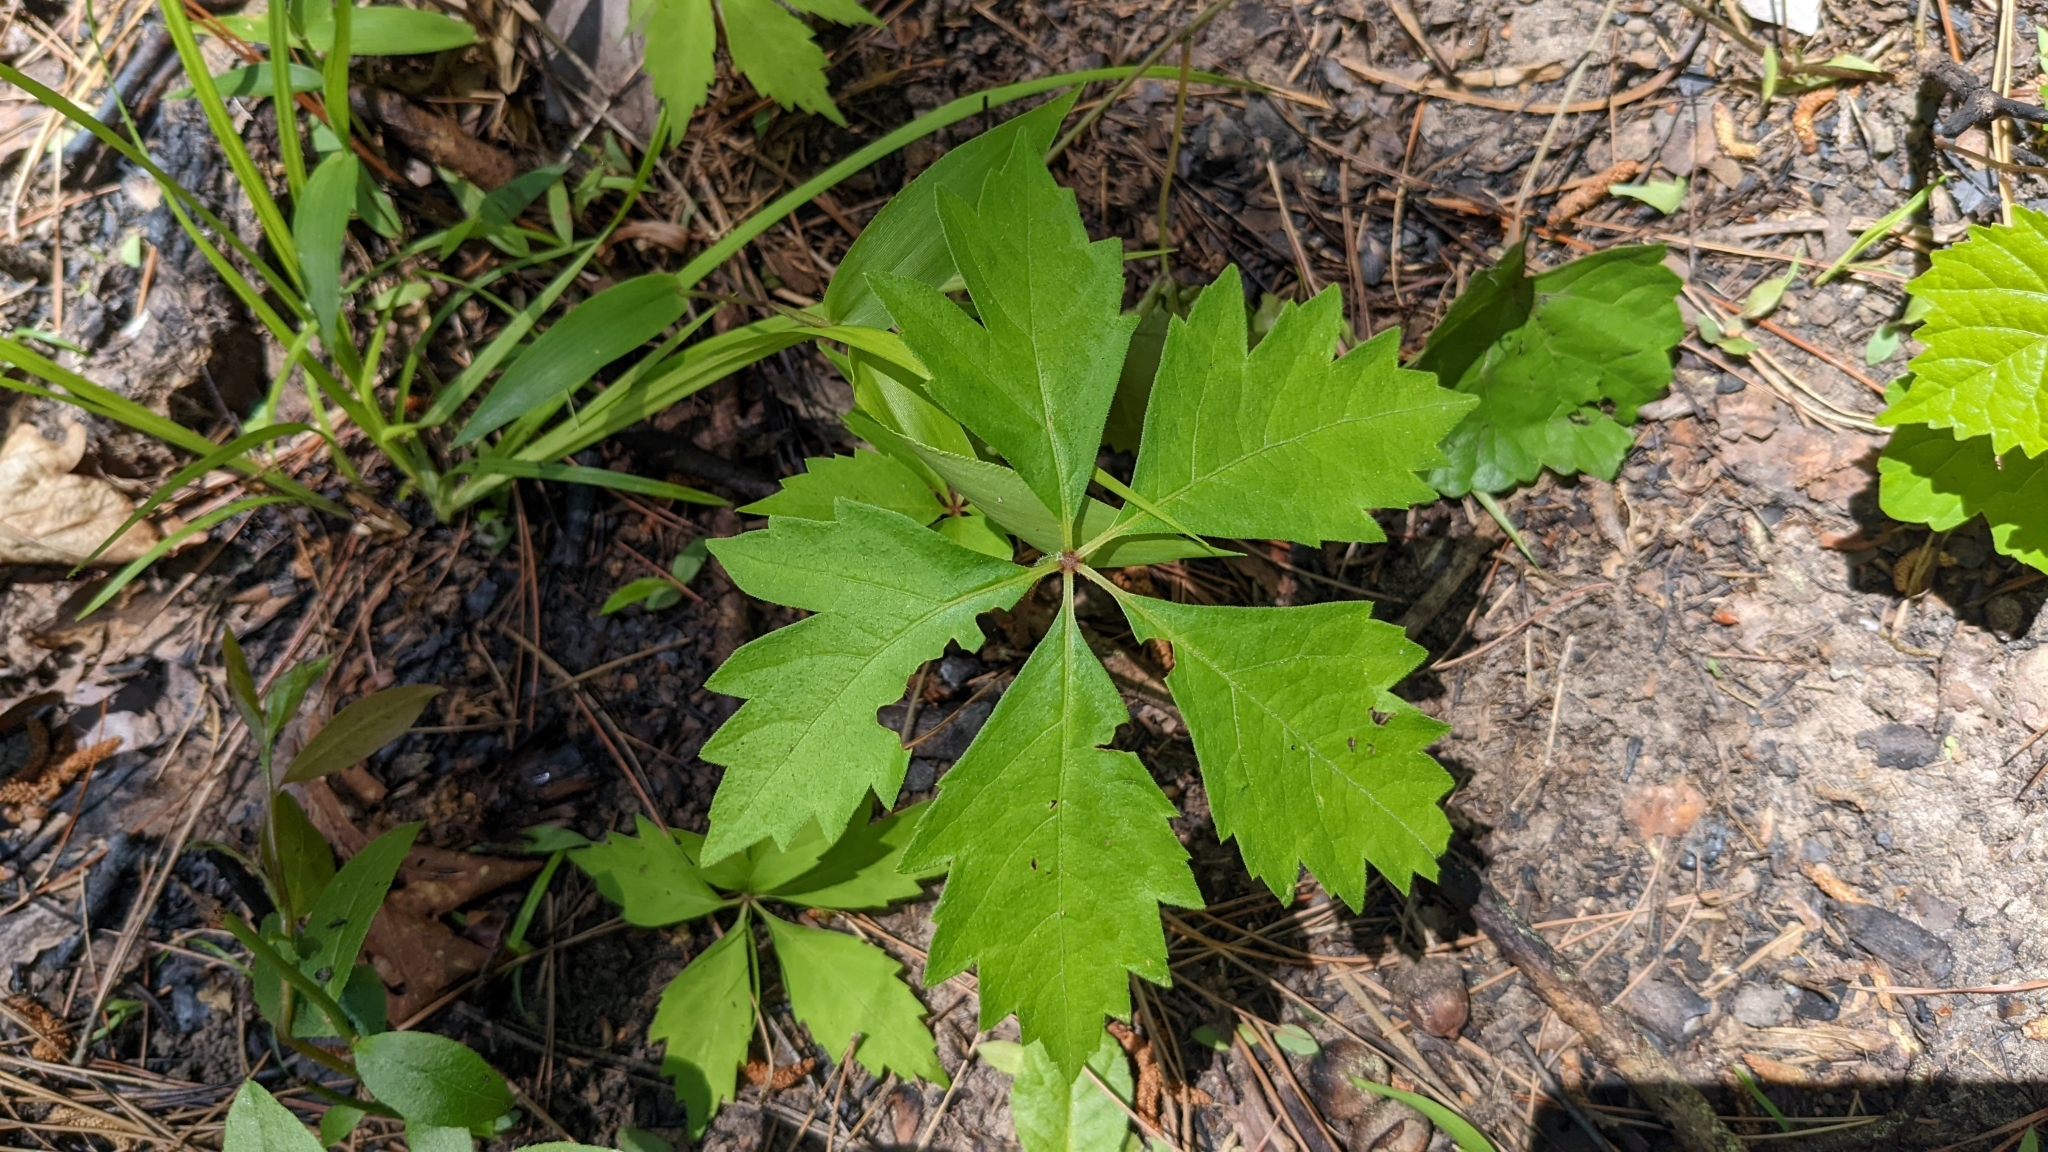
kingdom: Plantae
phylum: Tracheophyta
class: Magnoliopsida
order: Vitales
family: Vitaceae
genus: Parthenocissus
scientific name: Parthenocissus quinquefolia
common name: Virginia-creeper
